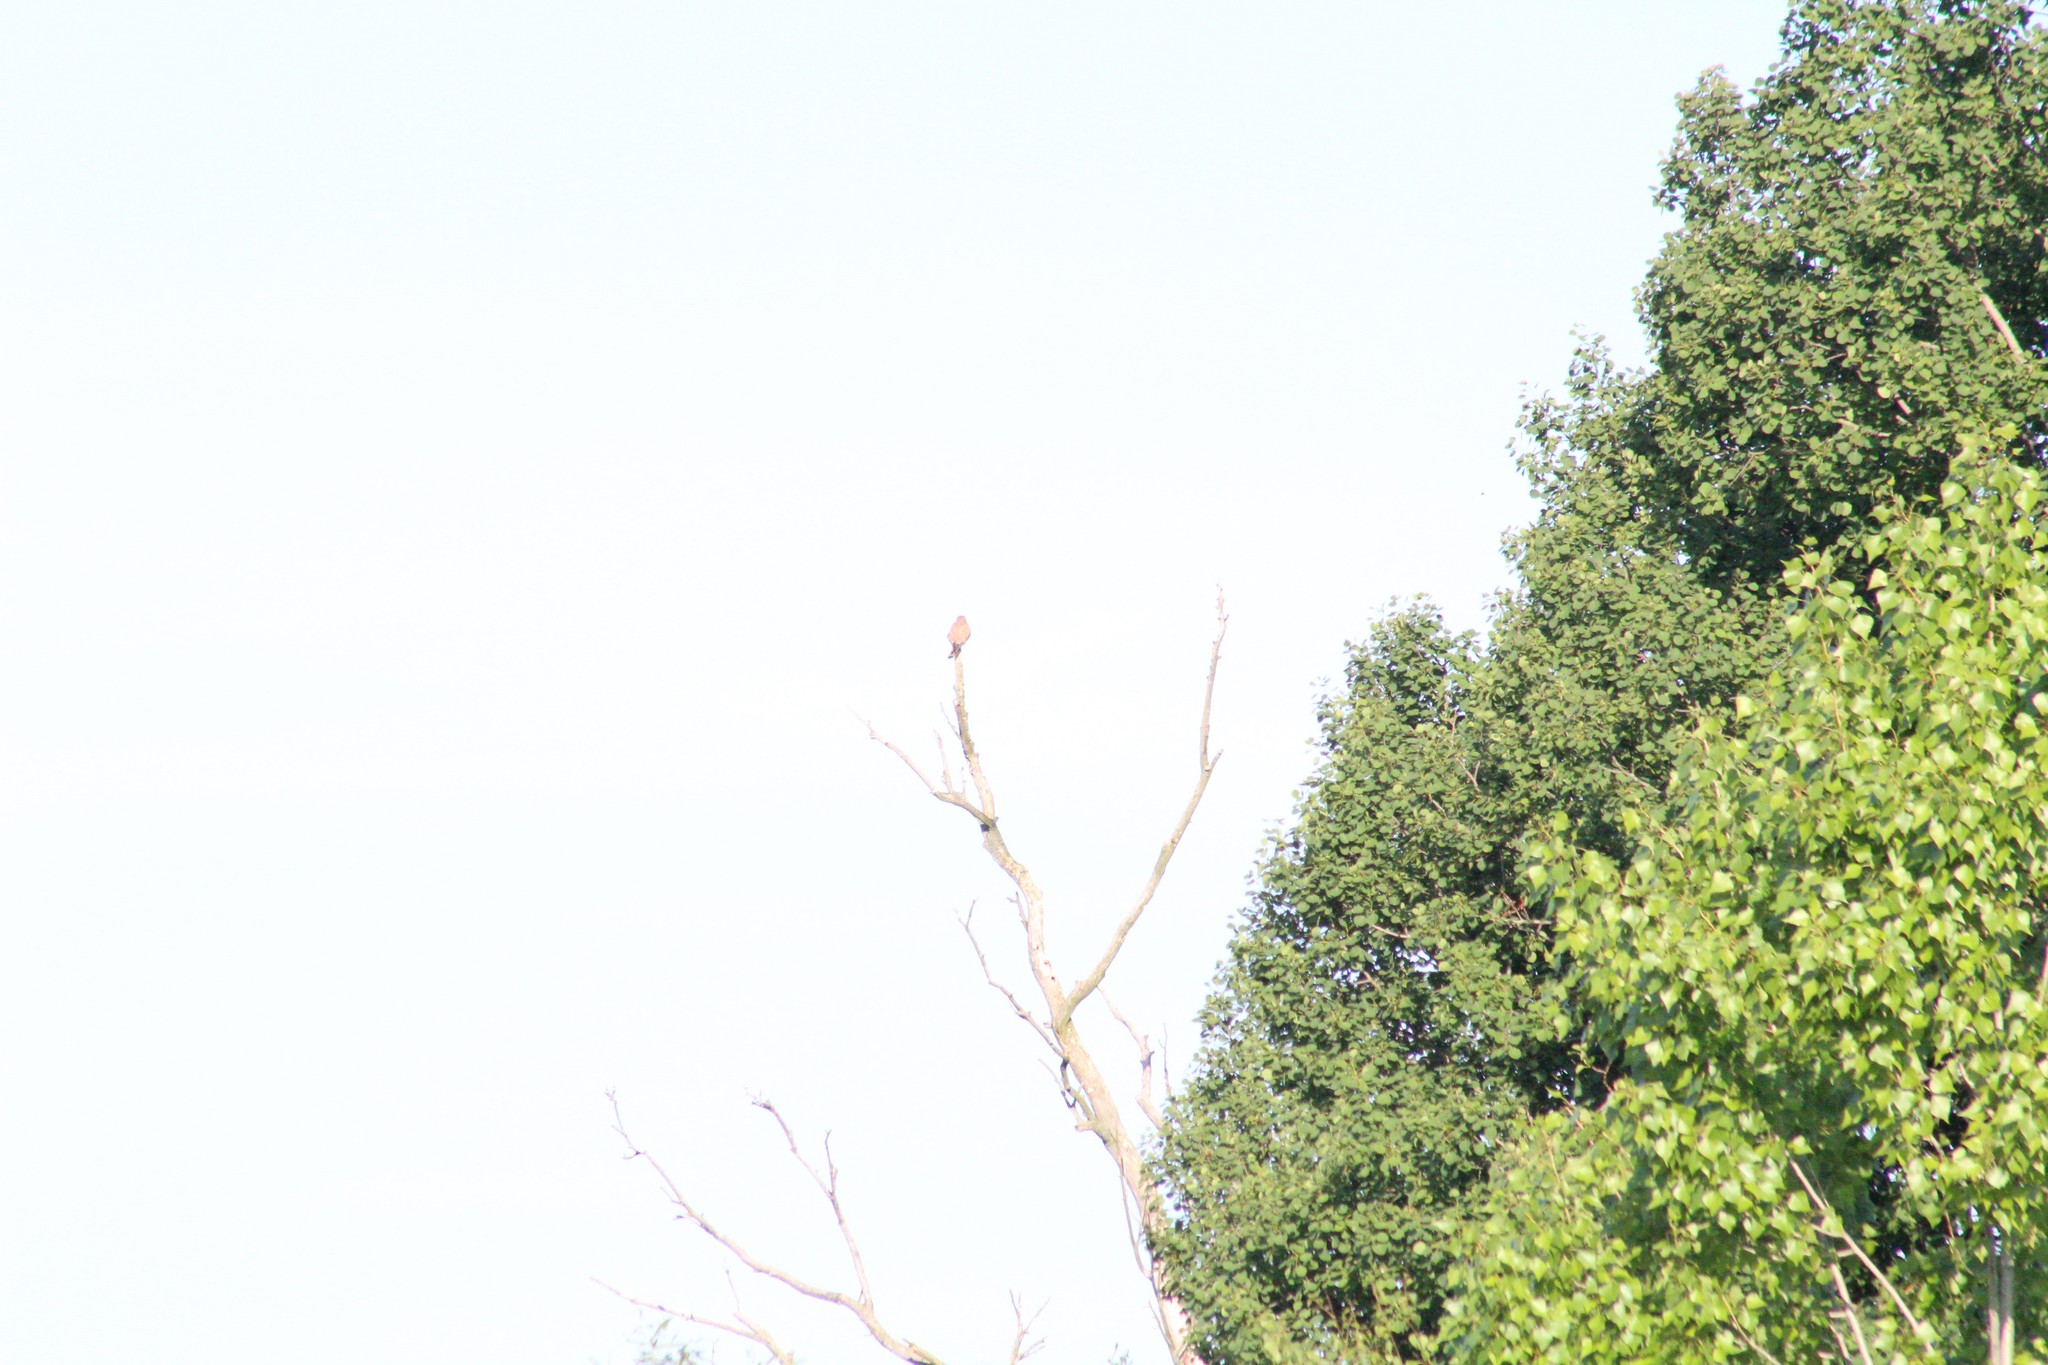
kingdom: Animalia
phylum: Chordata
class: Aves
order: Falconiformes
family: Falconidae
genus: Falco
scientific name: Falco tinnunculus
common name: Common kestrel
